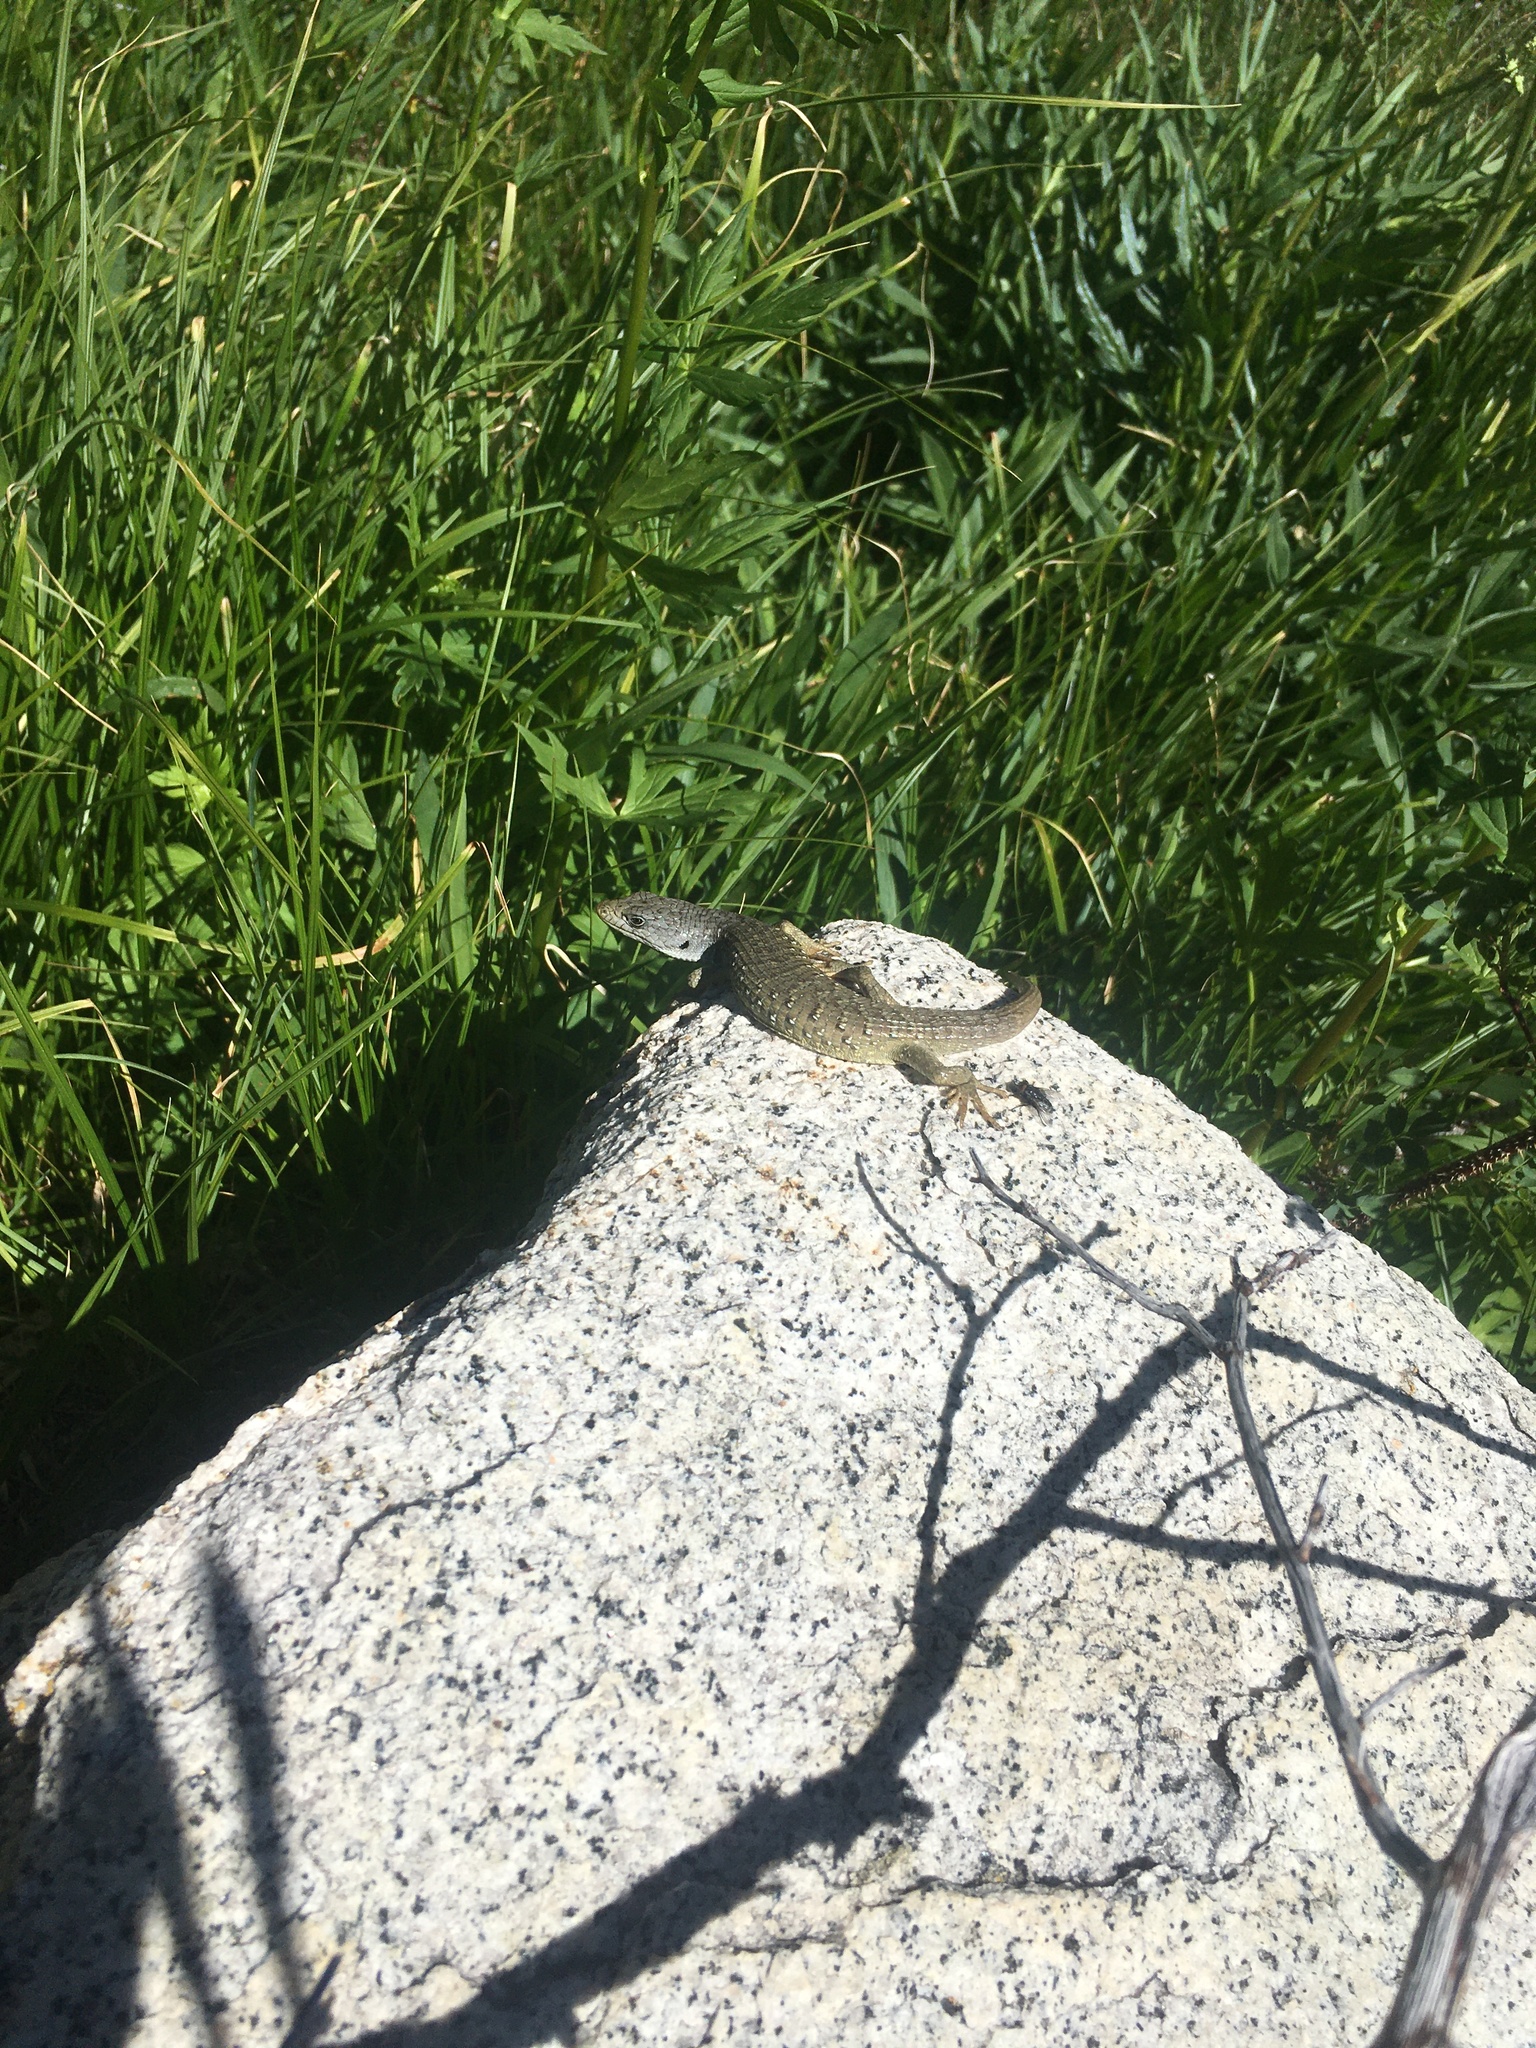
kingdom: Animalia
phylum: Chordata
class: Squamata
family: Anguidae
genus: Elgaria
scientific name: Elgaria coerulea
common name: Northern alligator lizard
